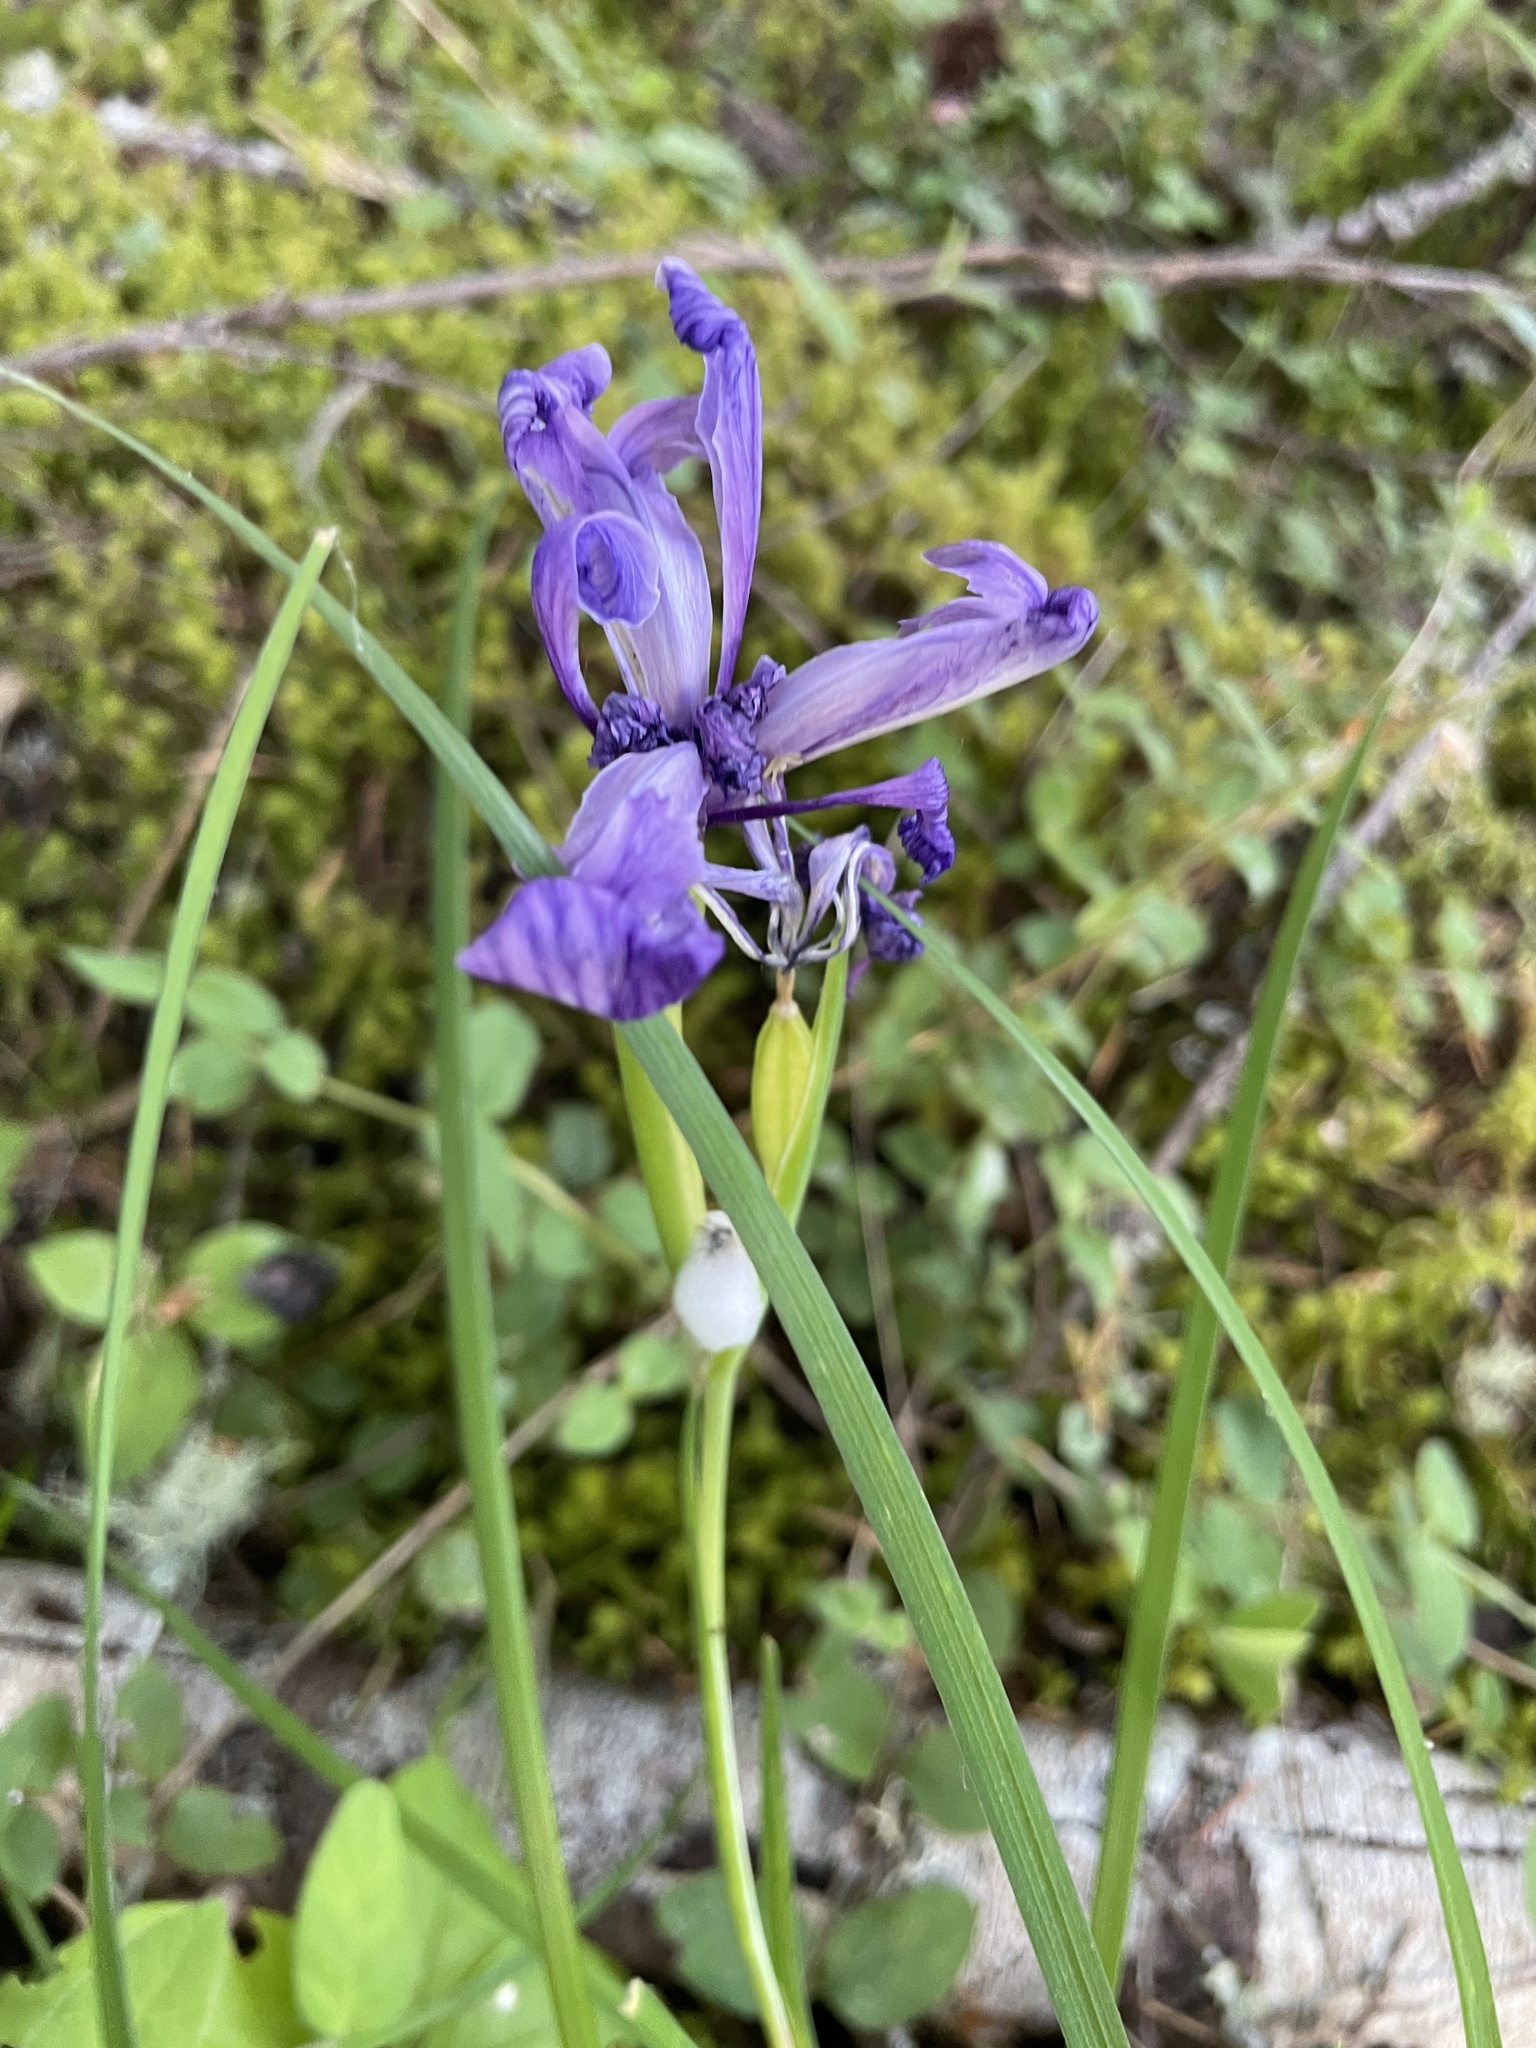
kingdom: Plantae
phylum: Tracheophyta
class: Liliopsida
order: Asparagales
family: Iridaceae
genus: Iris
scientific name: Iris tenax
